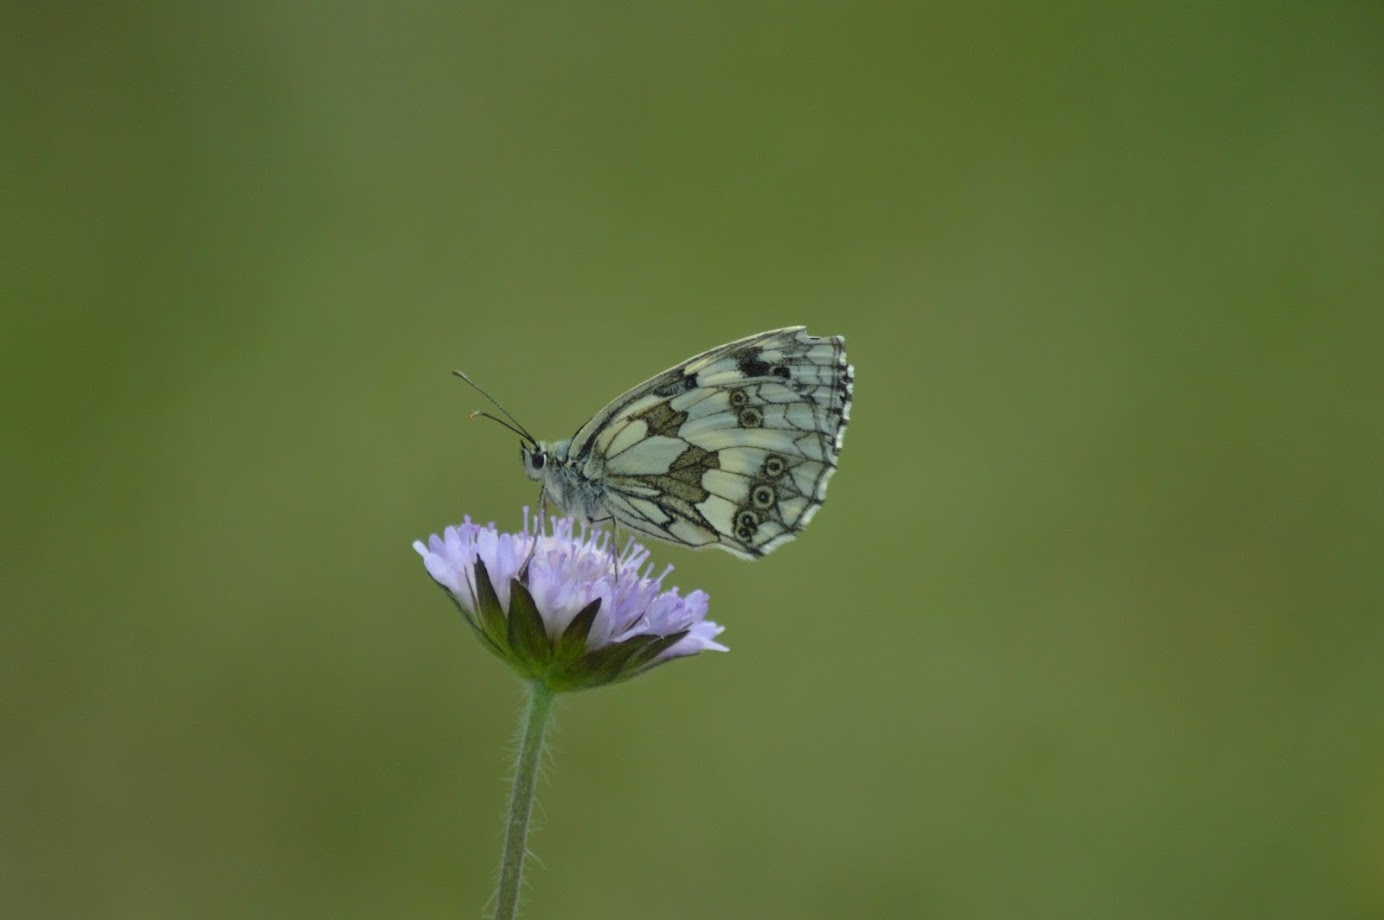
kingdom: Animalia
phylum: Arthropoda
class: Insecta
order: Lepidoptera
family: Nymphalidae
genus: Melanargia
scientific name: Melanargia galathea
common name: Marbled white
